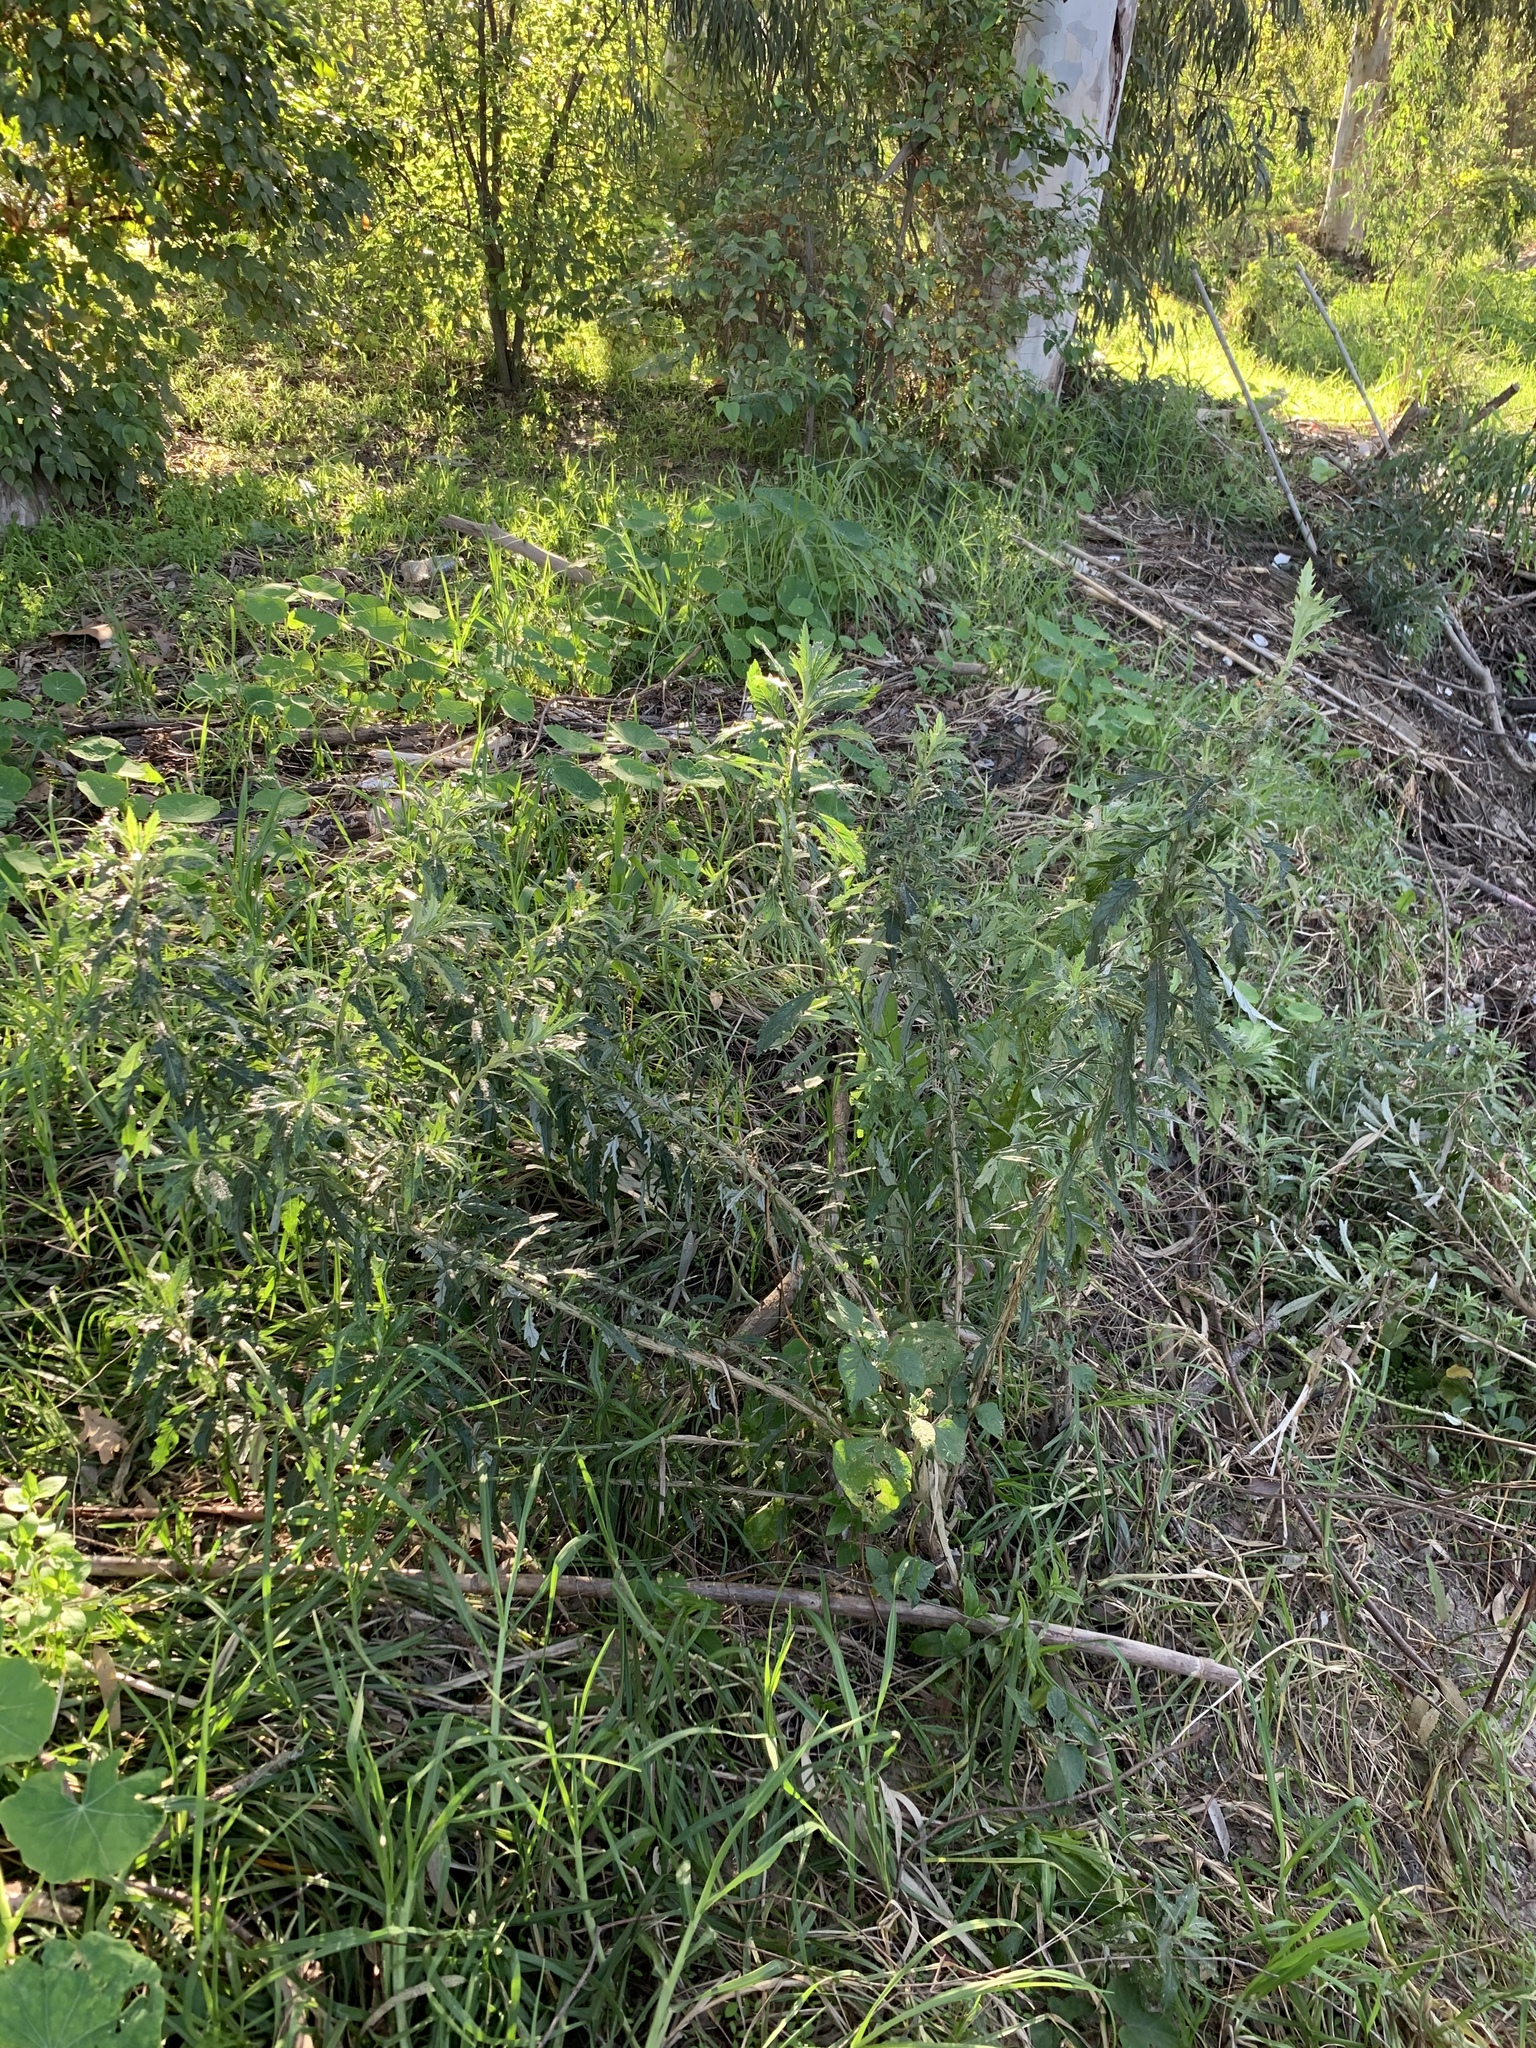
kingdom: Plantae
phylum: Tracheophyta
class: Magnoliopsida
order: Asterales
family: Asteraceae
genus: Senecio
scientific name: Senecio pterophorus
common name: Shoddy ragwort
